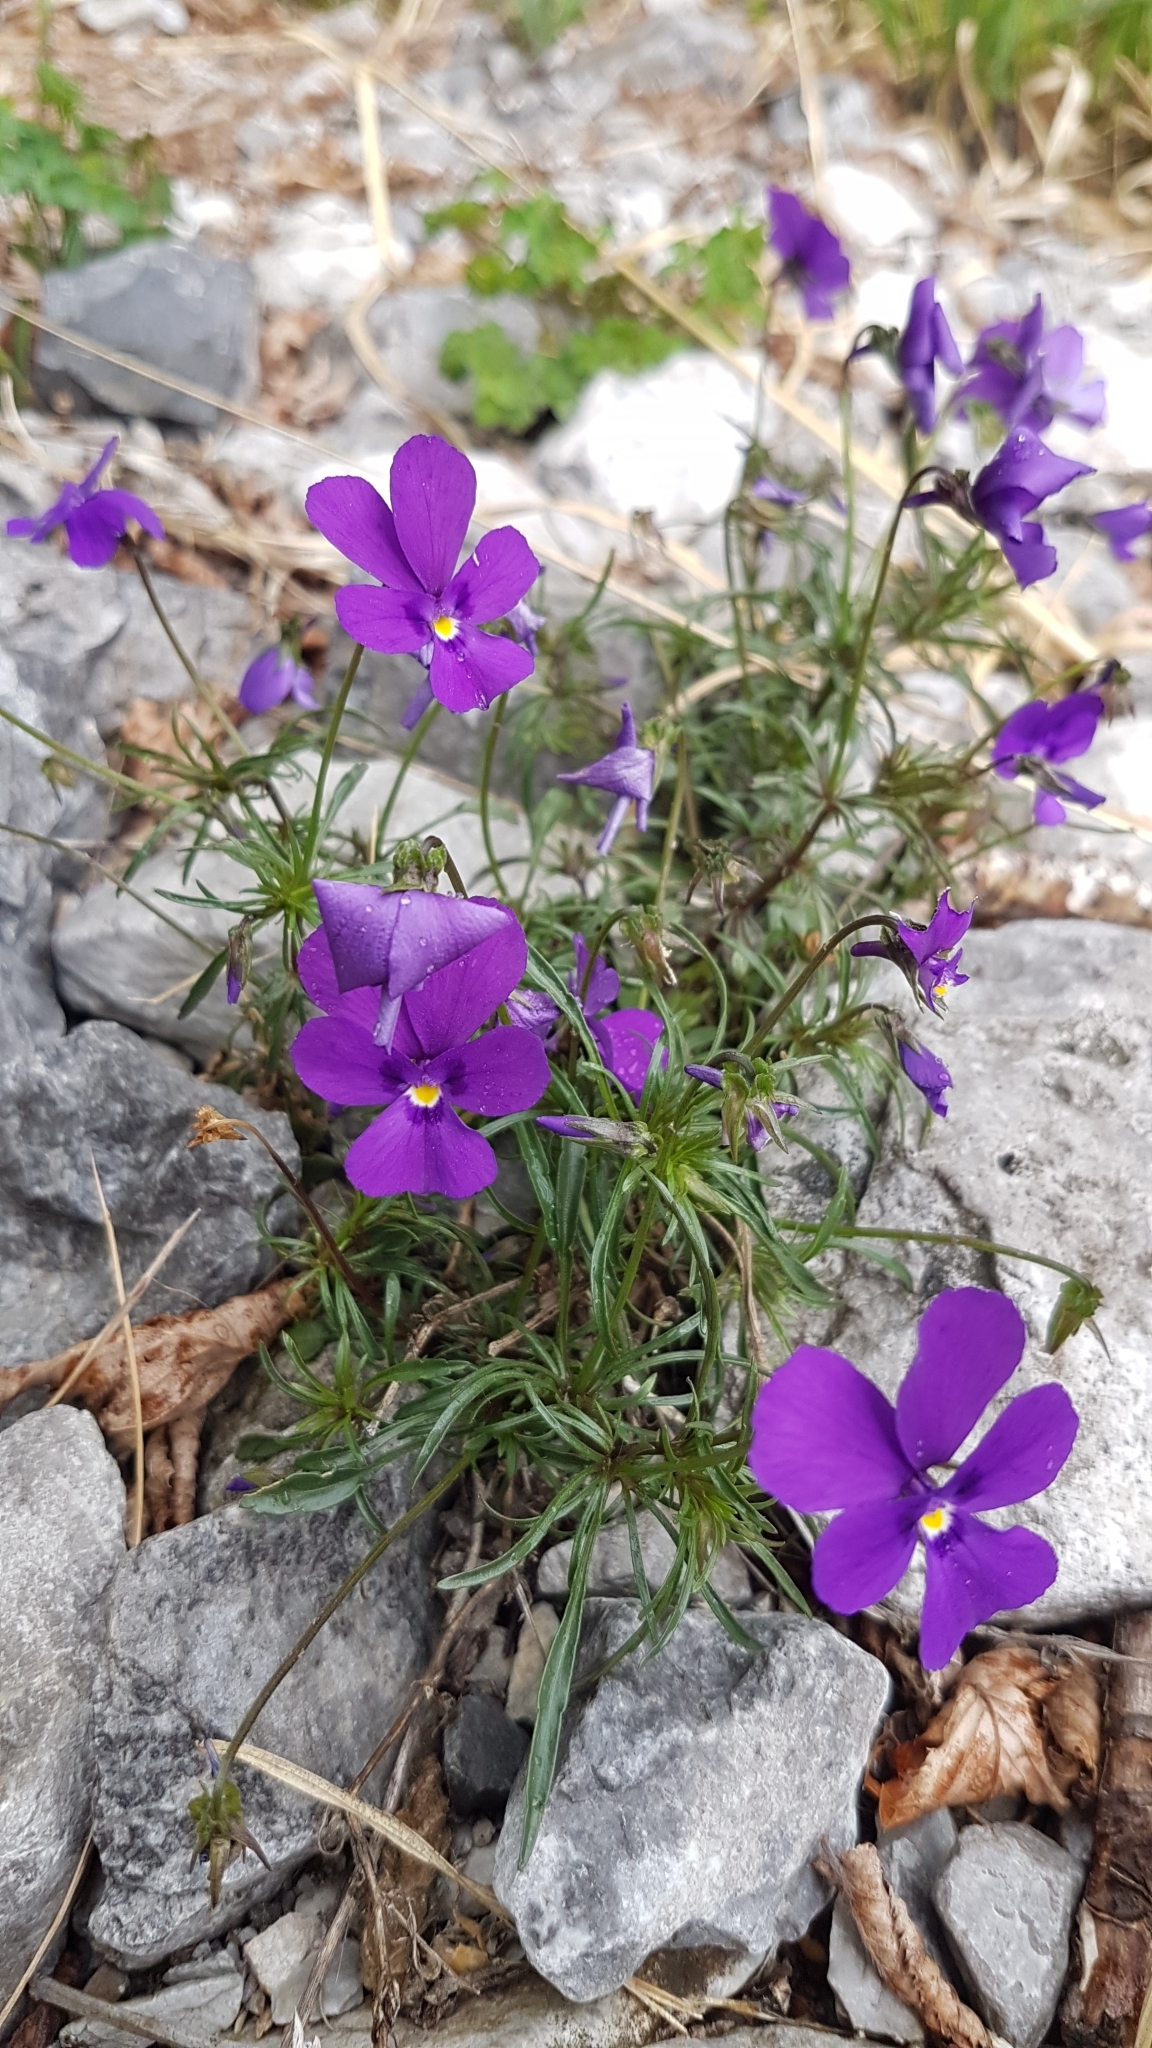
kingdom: Plantae
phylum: Tracheophyta
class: Magnoliopsida
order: Malpighiales
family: Violaceae
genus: Viola
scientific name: Viola dubyana
